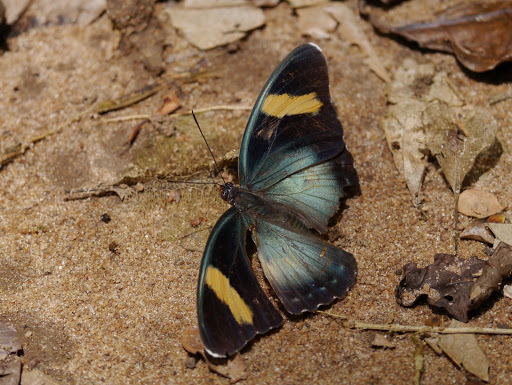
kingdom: Animalia
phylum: Arthropoda
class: Insecta
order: Lepidoptera
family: Nymphalidae
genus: Euphaedra
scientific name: Euphaedra phaethusa
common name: Common ceres forester
